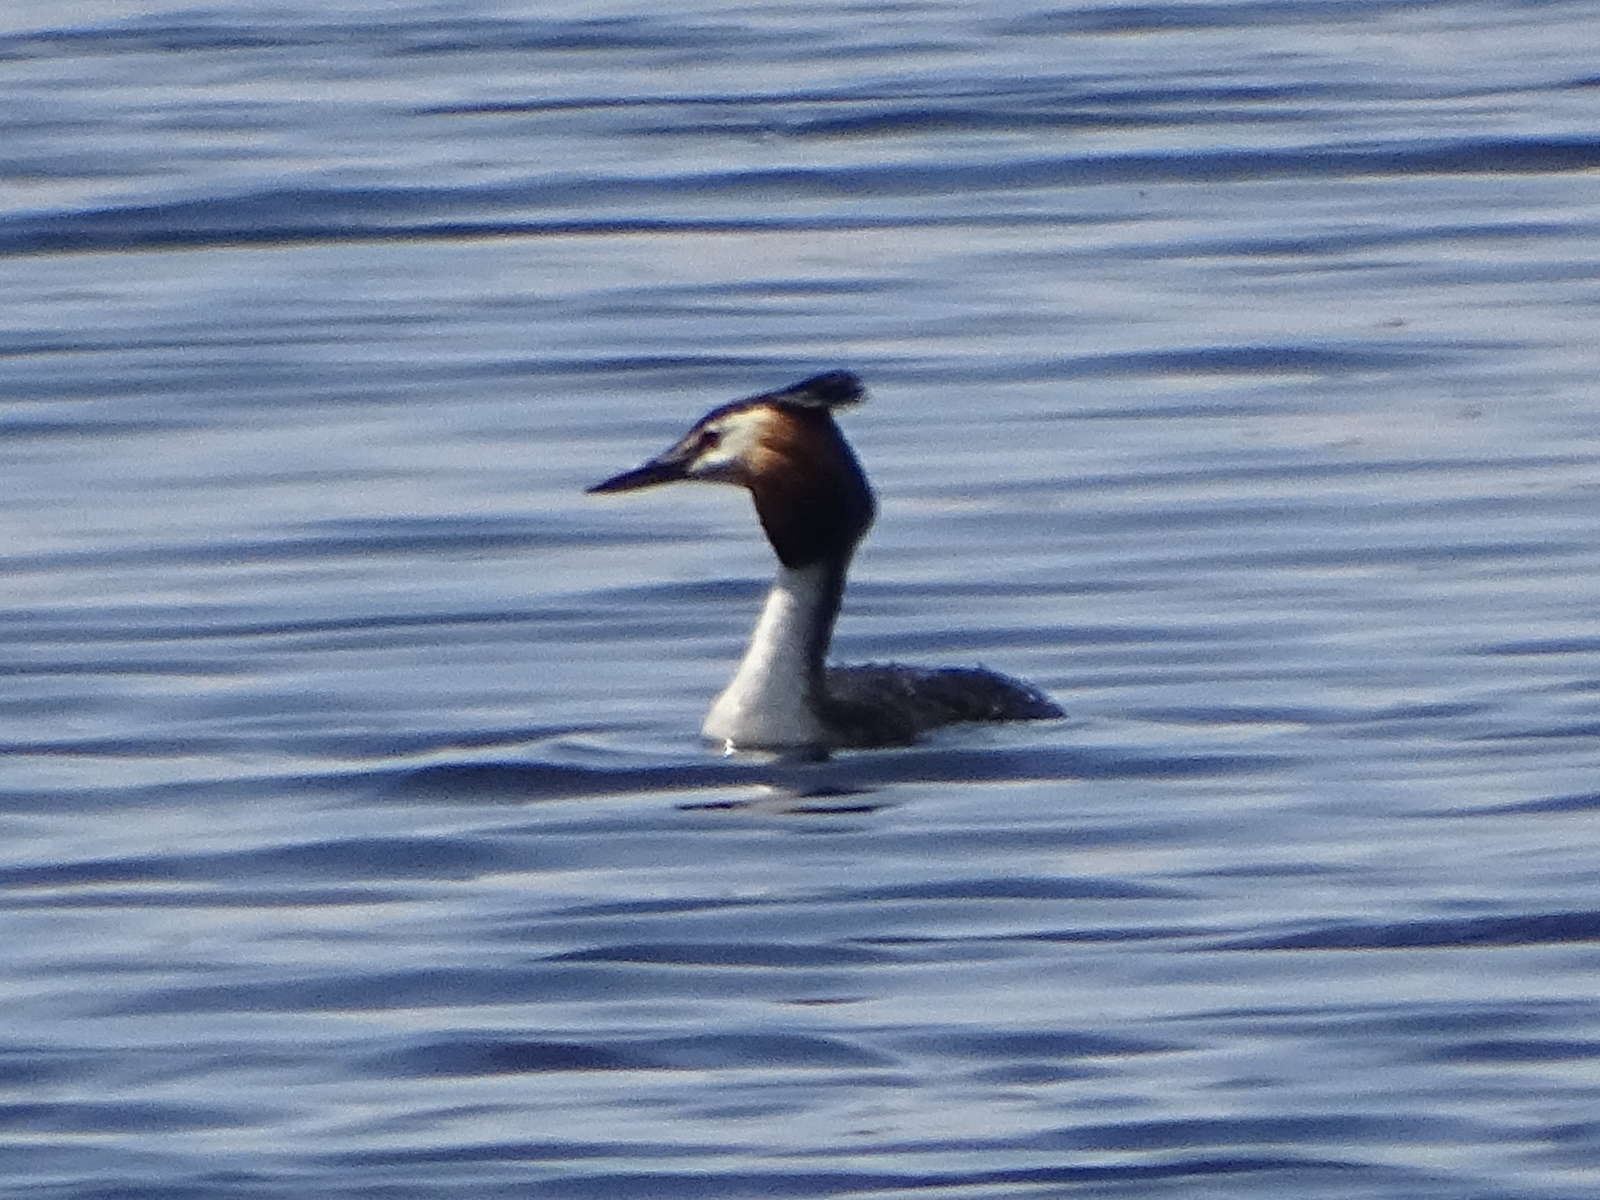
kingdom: Animalia
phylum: Chordata
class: Aves
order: Podicipediformes
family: Podicipedidae
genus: Podiceps
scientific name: Podiceps cristatus
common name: Great crested grebe
